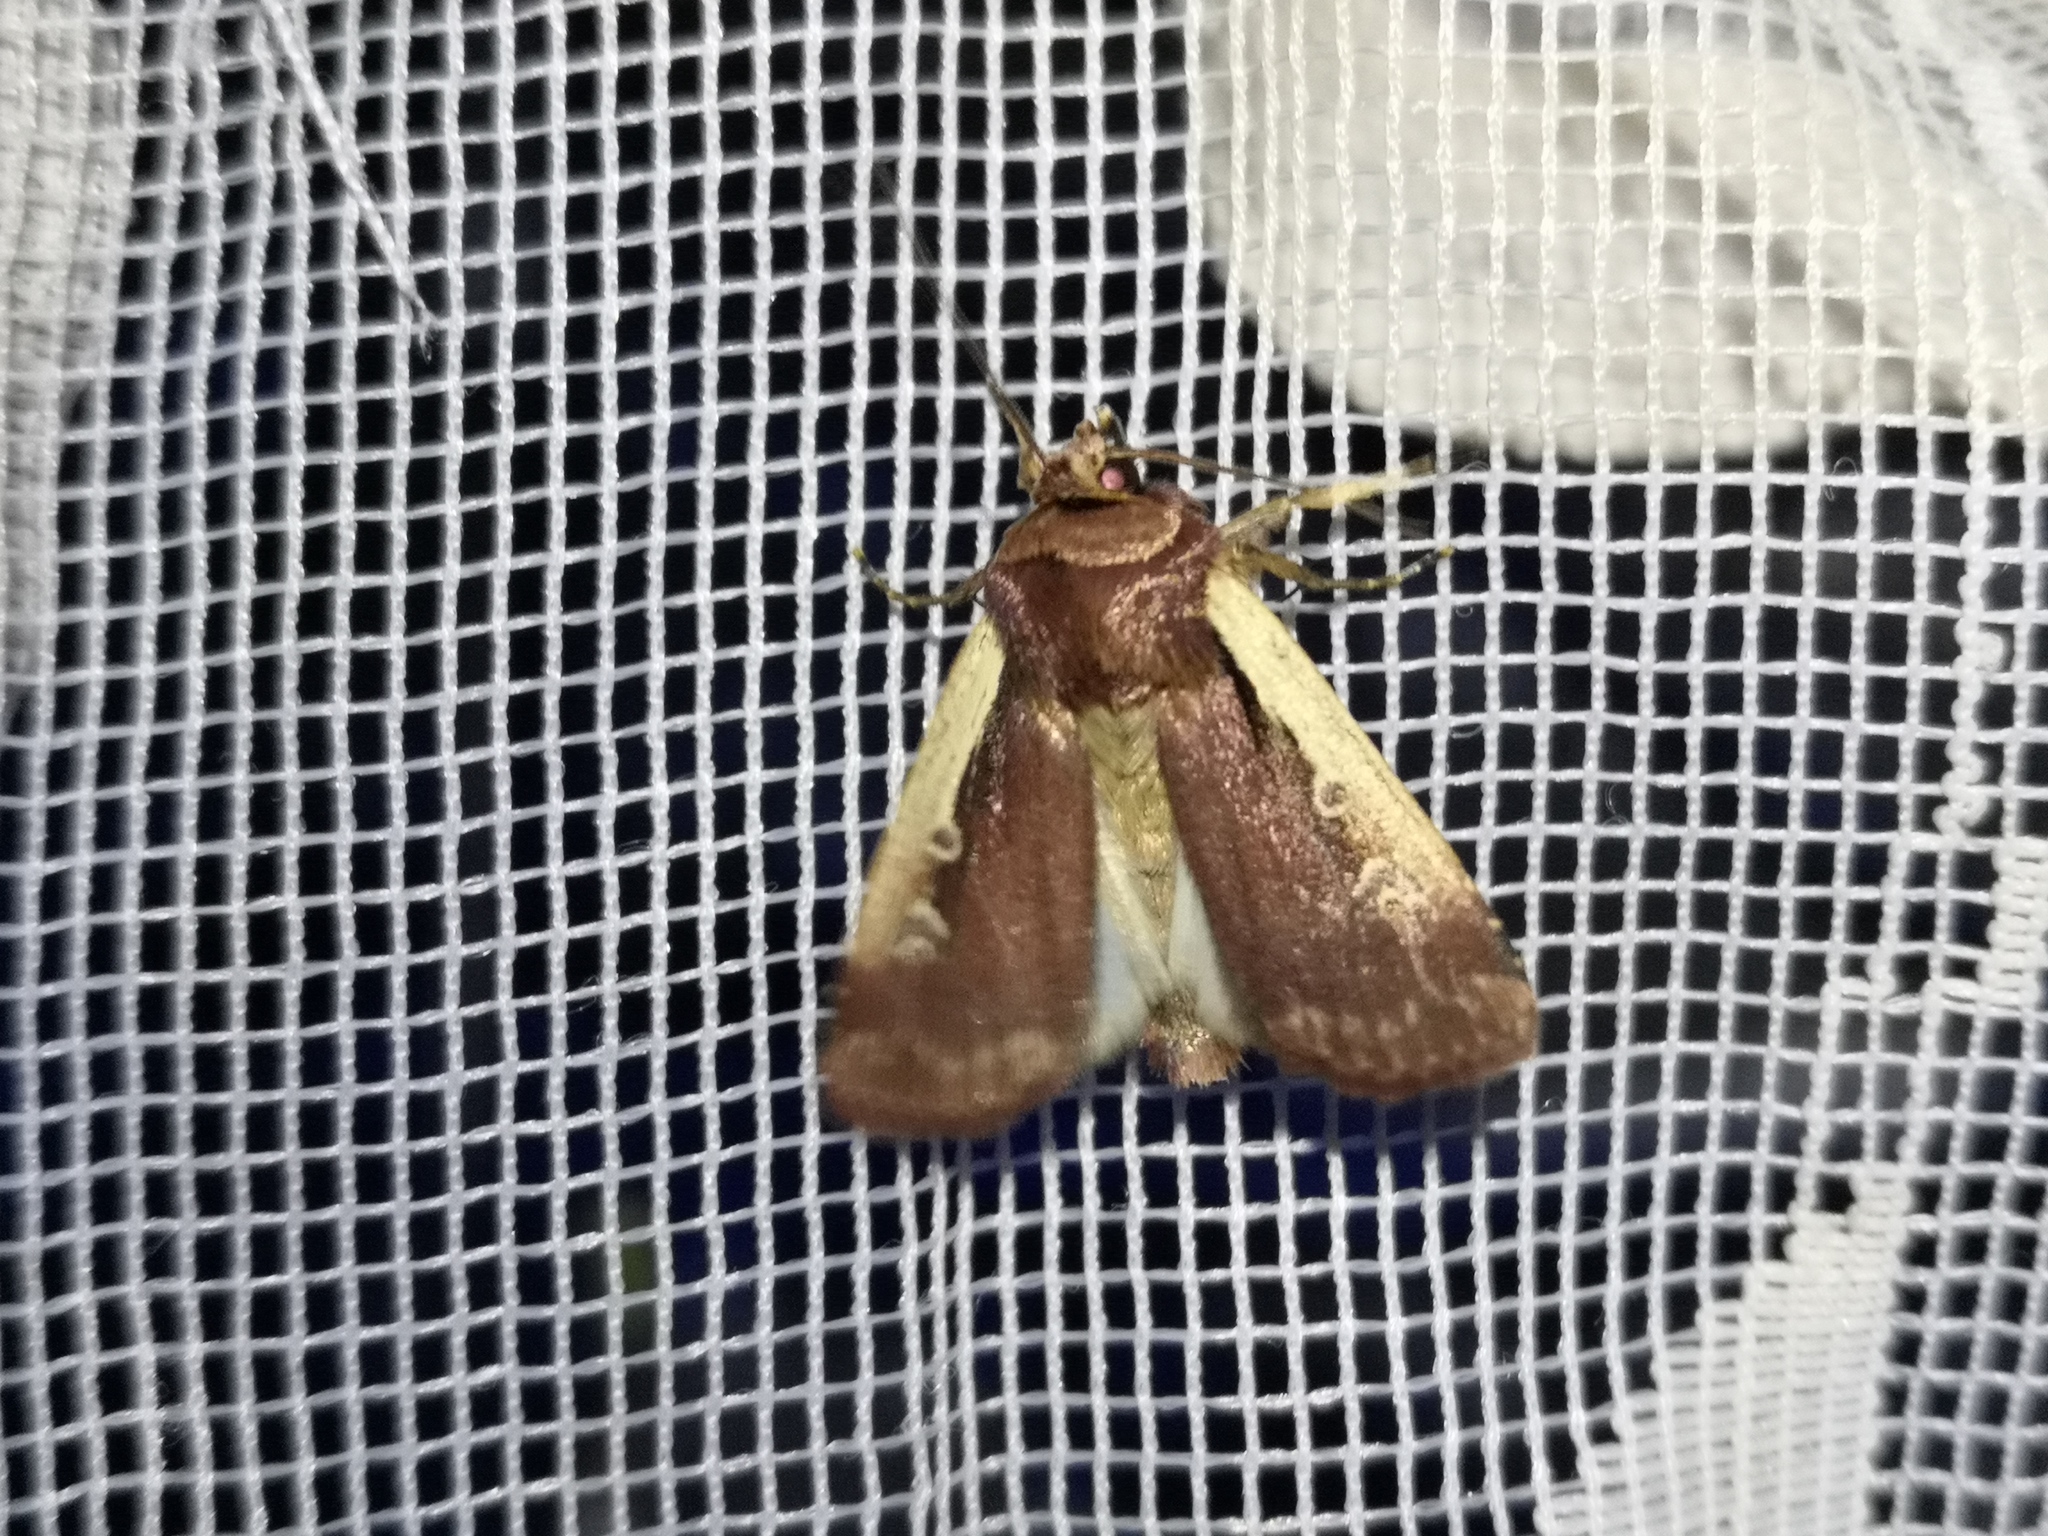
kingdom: Animalia
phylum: Arthropoda
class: Insecta
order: Lepidoptera
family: Noctuidae
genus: Ochropleura
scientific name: Ochropleura plecta
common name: Flame shoulder
